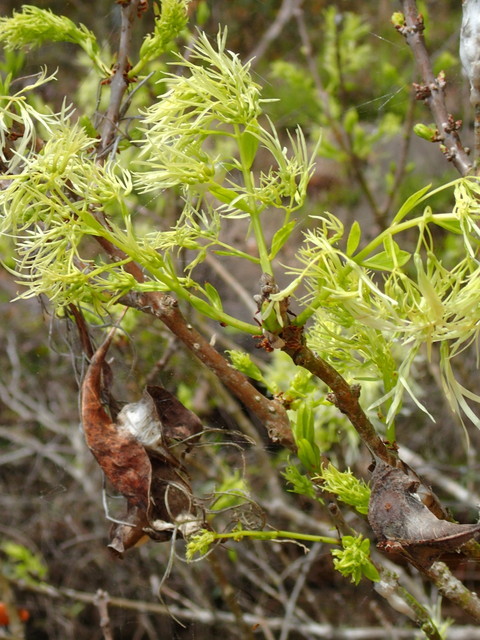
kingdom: Plantae
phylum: Tracheophyta
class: Magnoliopsida
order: Lamiales
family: Oleaceae
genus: Chionanthus
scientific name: Chionanthus virginicus
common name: American fringetree
